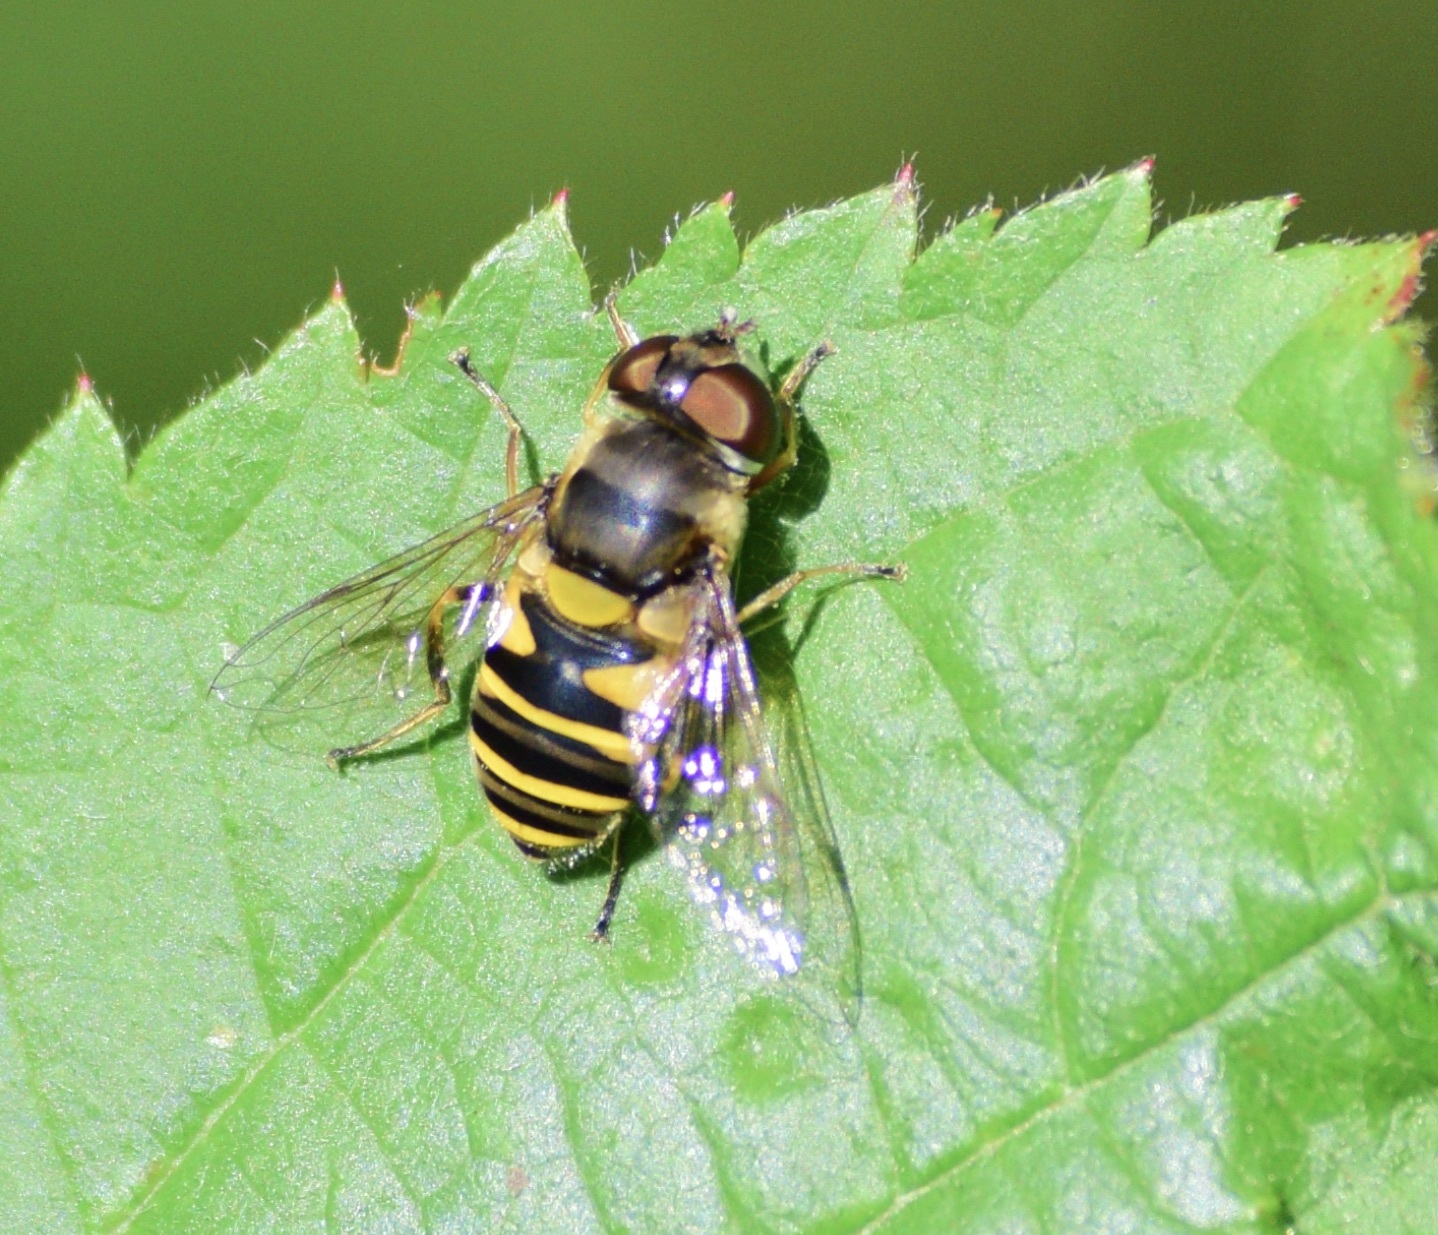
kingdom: Animalia
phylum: Arthropoda
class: Insecta
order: Diptera
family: Syrphidae
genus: Eristalis
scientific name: Eristalis transversa
